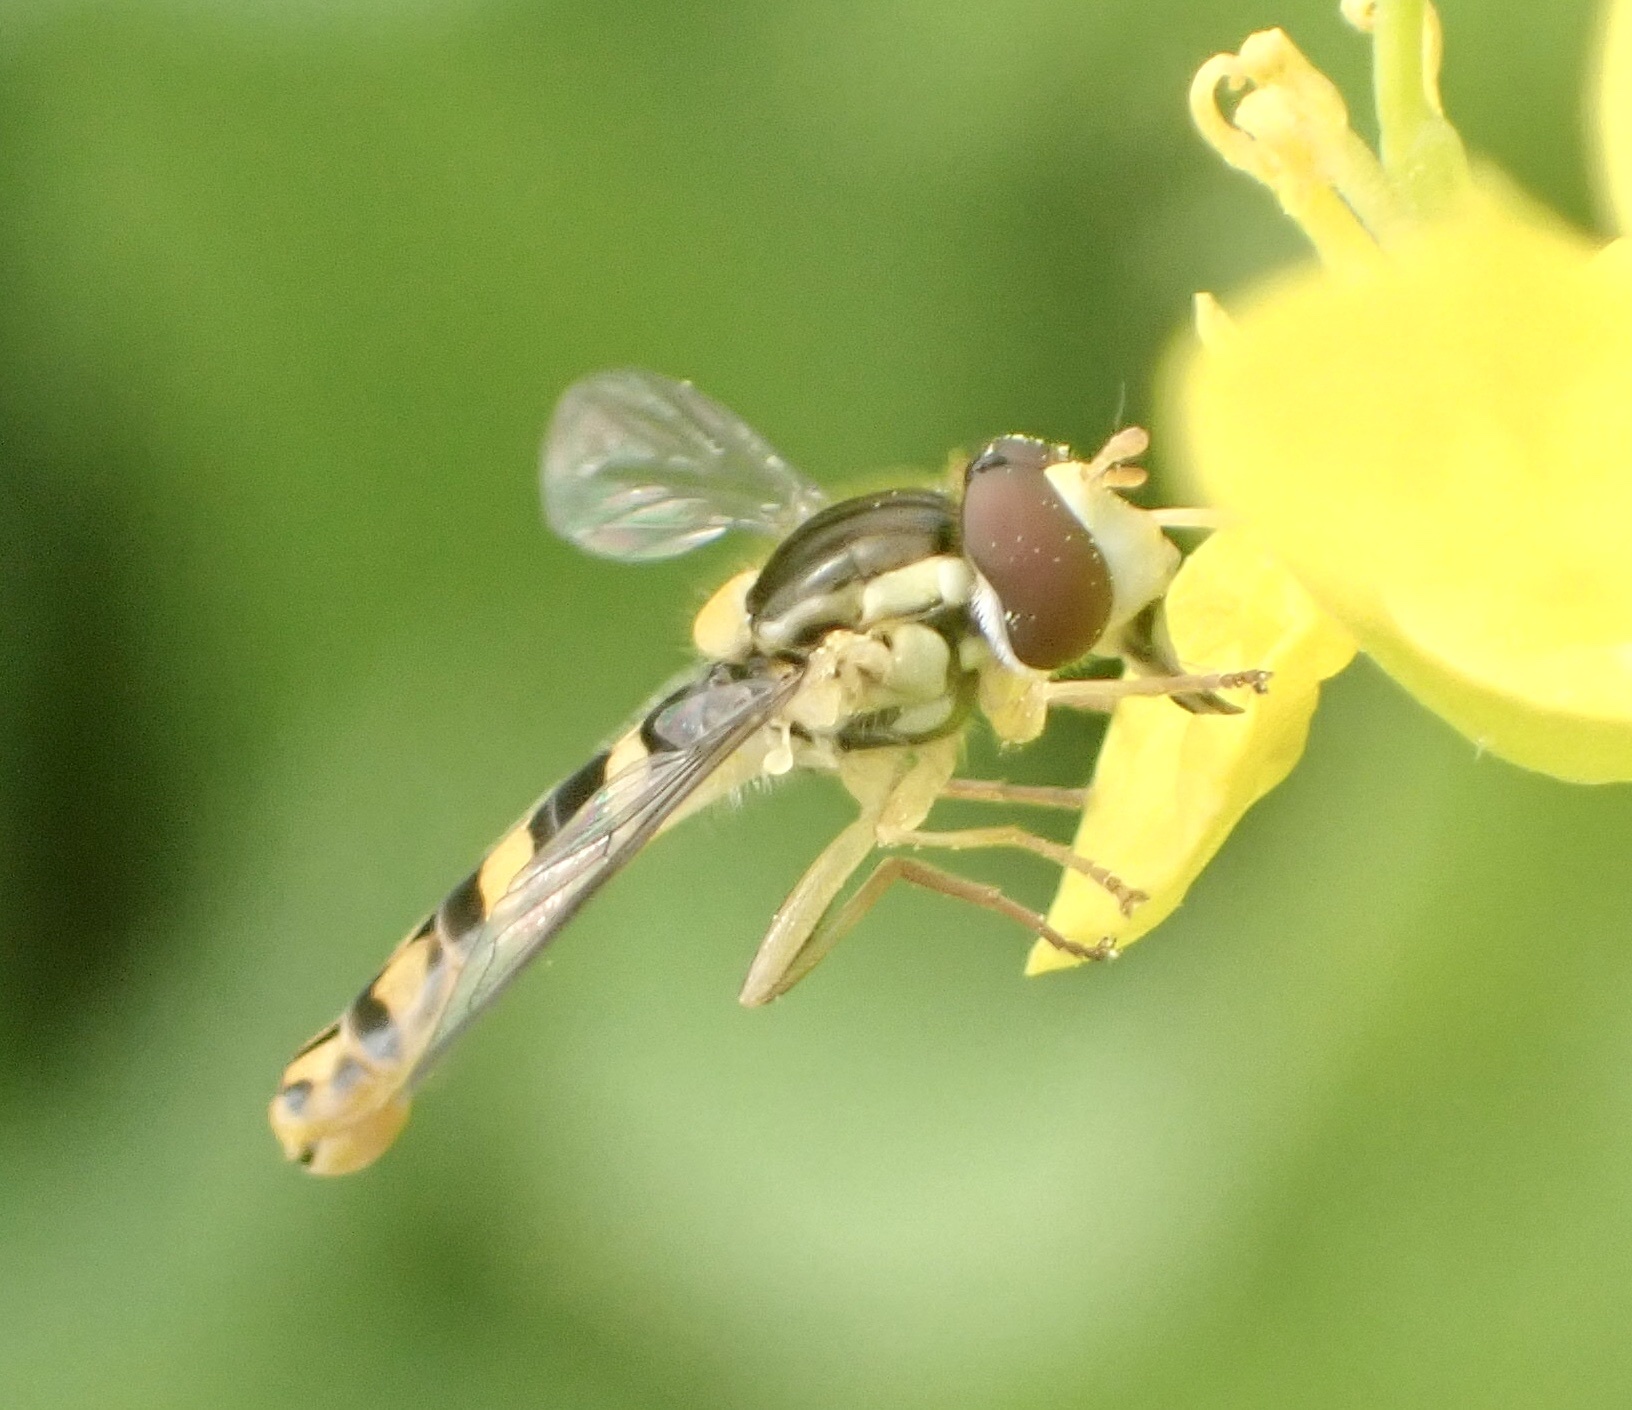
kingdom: Animalia
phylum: Arthropoda
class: Insecta
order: Diptera
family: Syrphidae
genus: Sphaerophoria
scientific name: Sphaerophoria scripta
